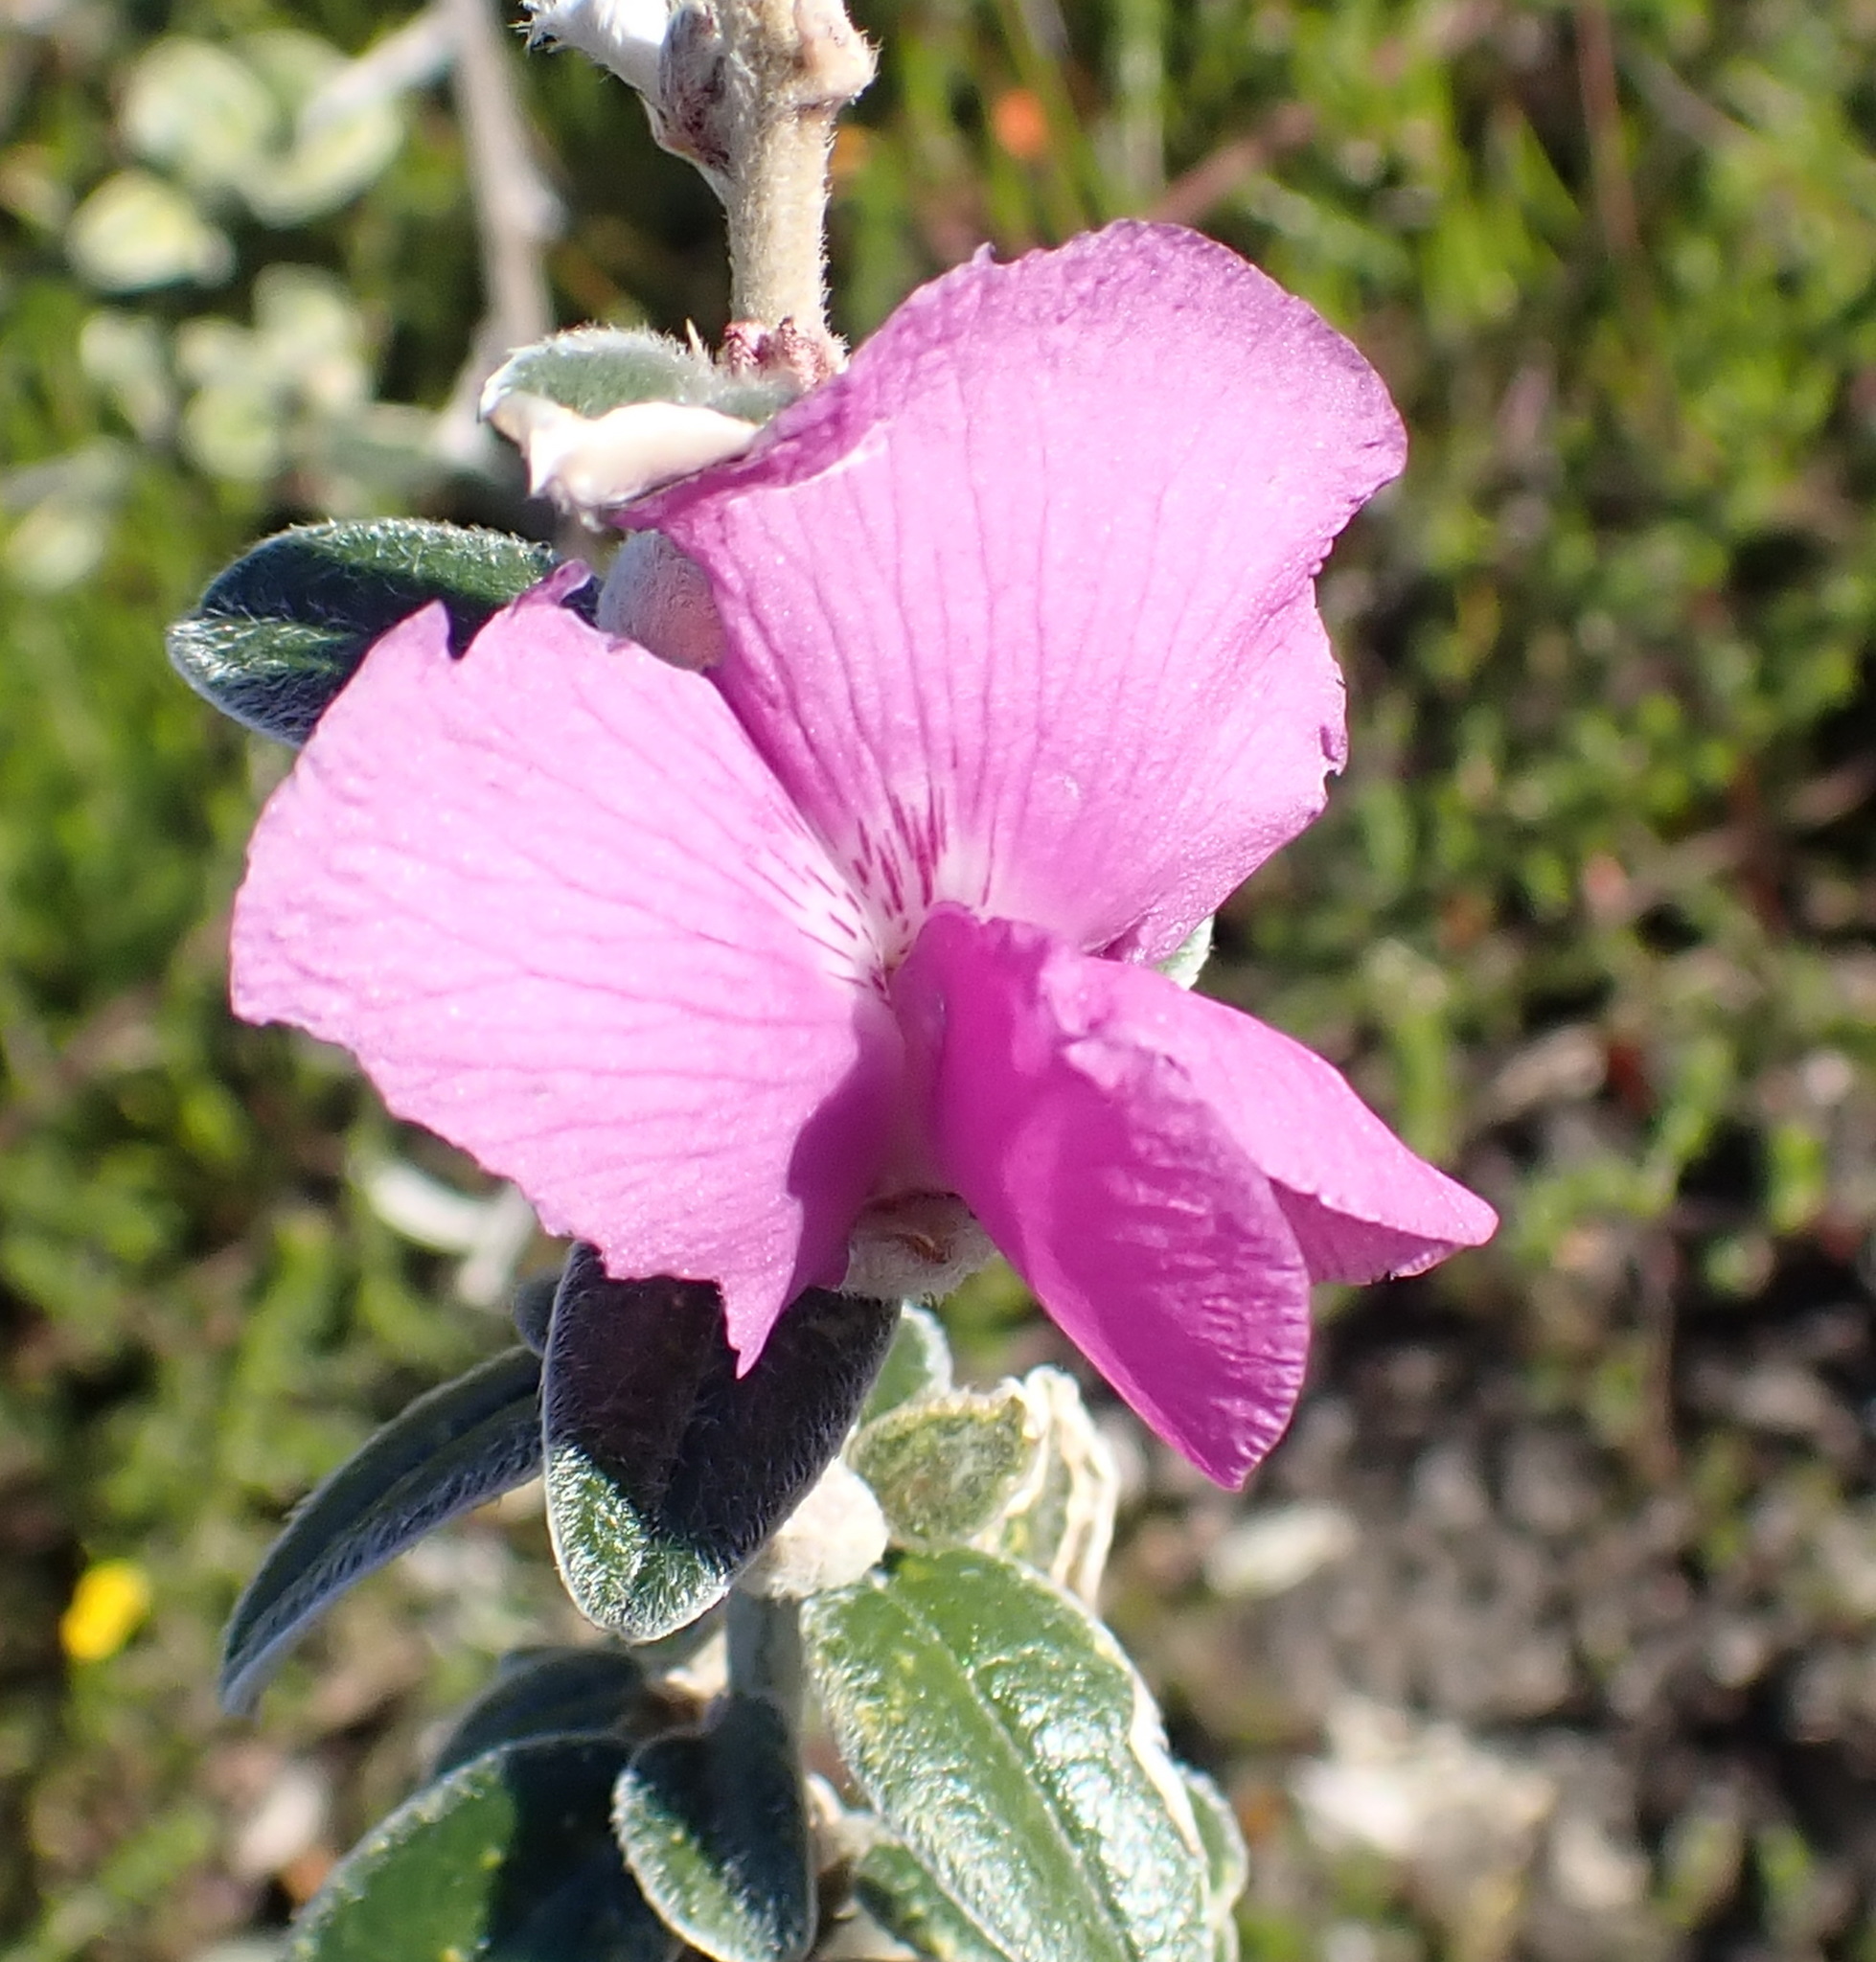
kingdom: Plantae
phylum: Tracheophyta
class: Magnoliopsida
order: Fabales
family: Fabaceae
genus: Podalyria
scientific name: Podalyria burchellii
